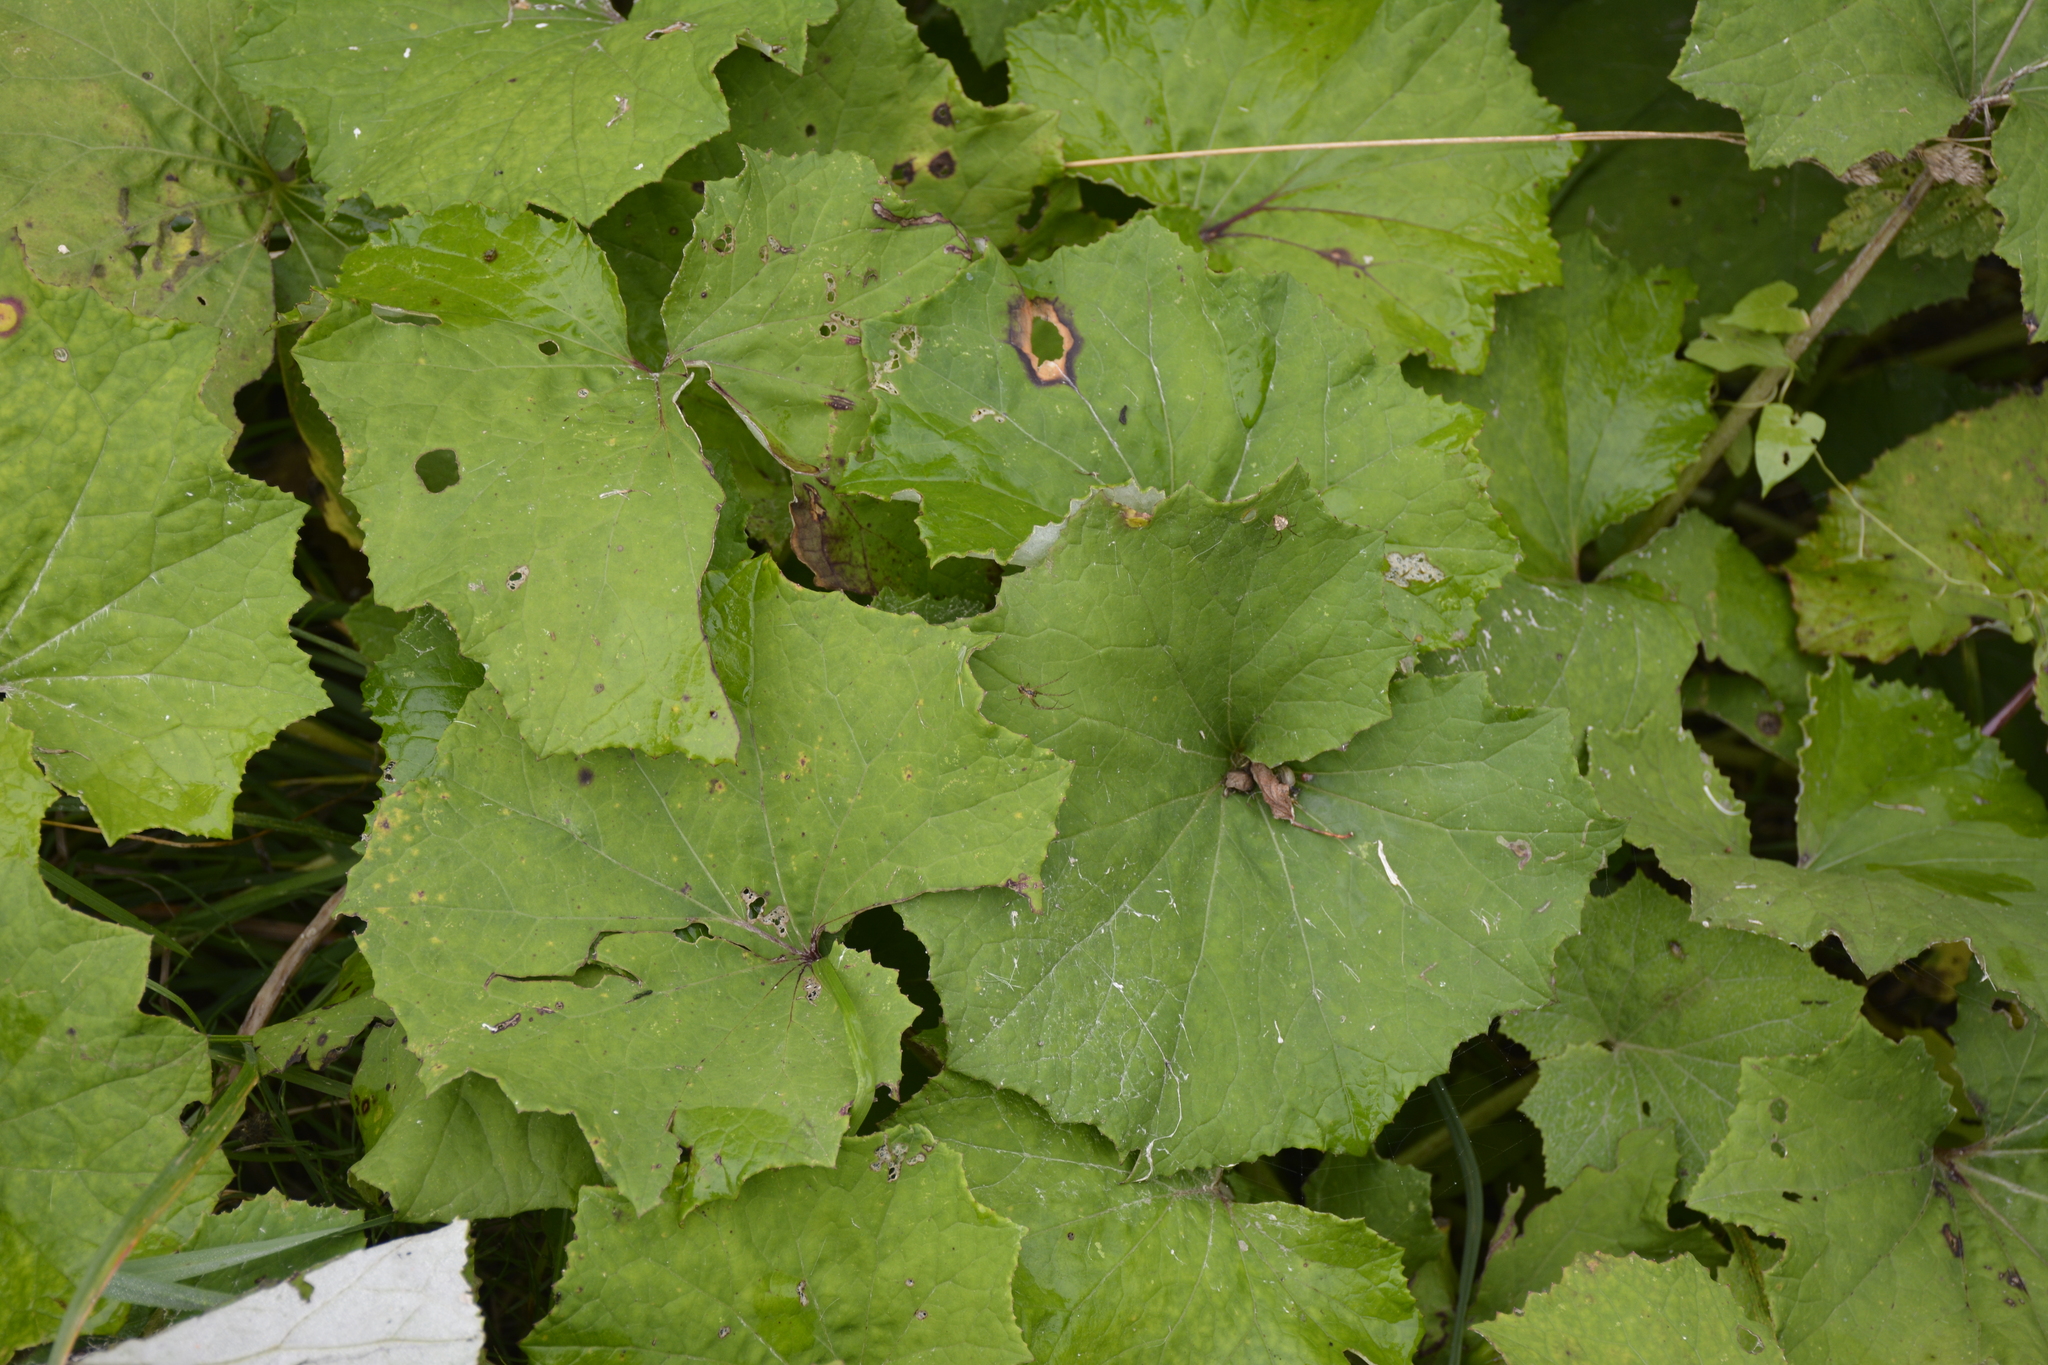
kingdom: Plantae
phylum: Tracheophyta
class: Magnoliopsida
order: Asterales
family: Asteraceae
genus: Tussilago
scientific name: Tussilago farfara
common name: Coltsfoot
